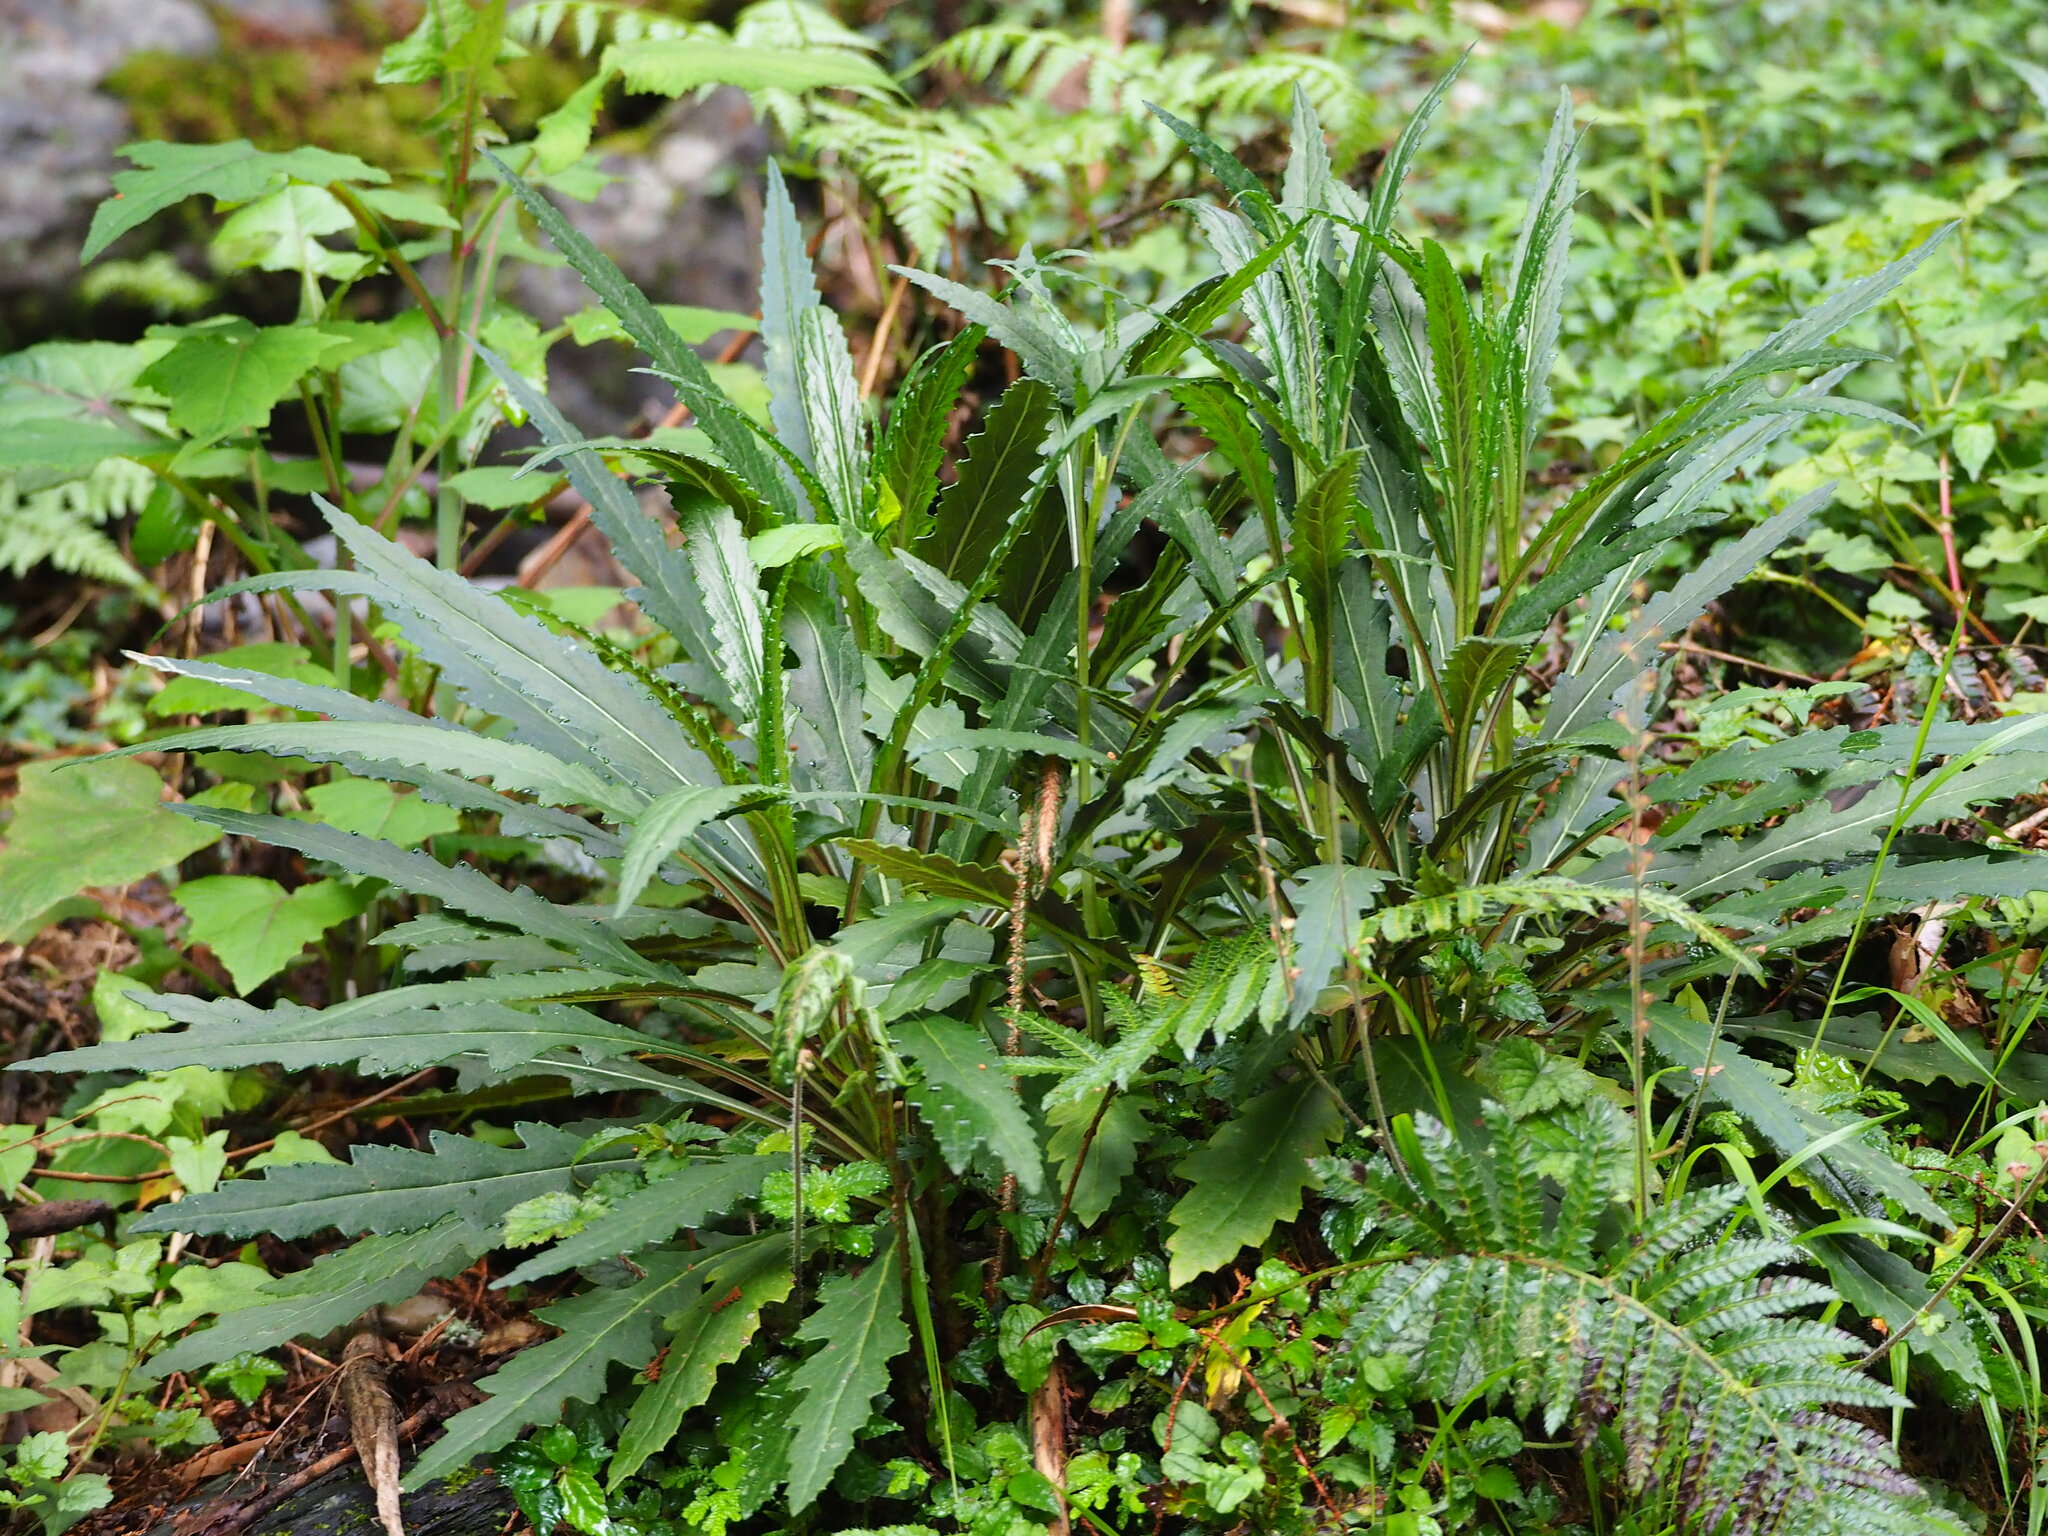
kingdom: Plantae
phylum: Tracheophyta
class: Magnoliopsida
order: Asterales
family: Asteraceae
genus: Senecio
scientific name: Senecio nemorensis
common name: Alpine ragwort
